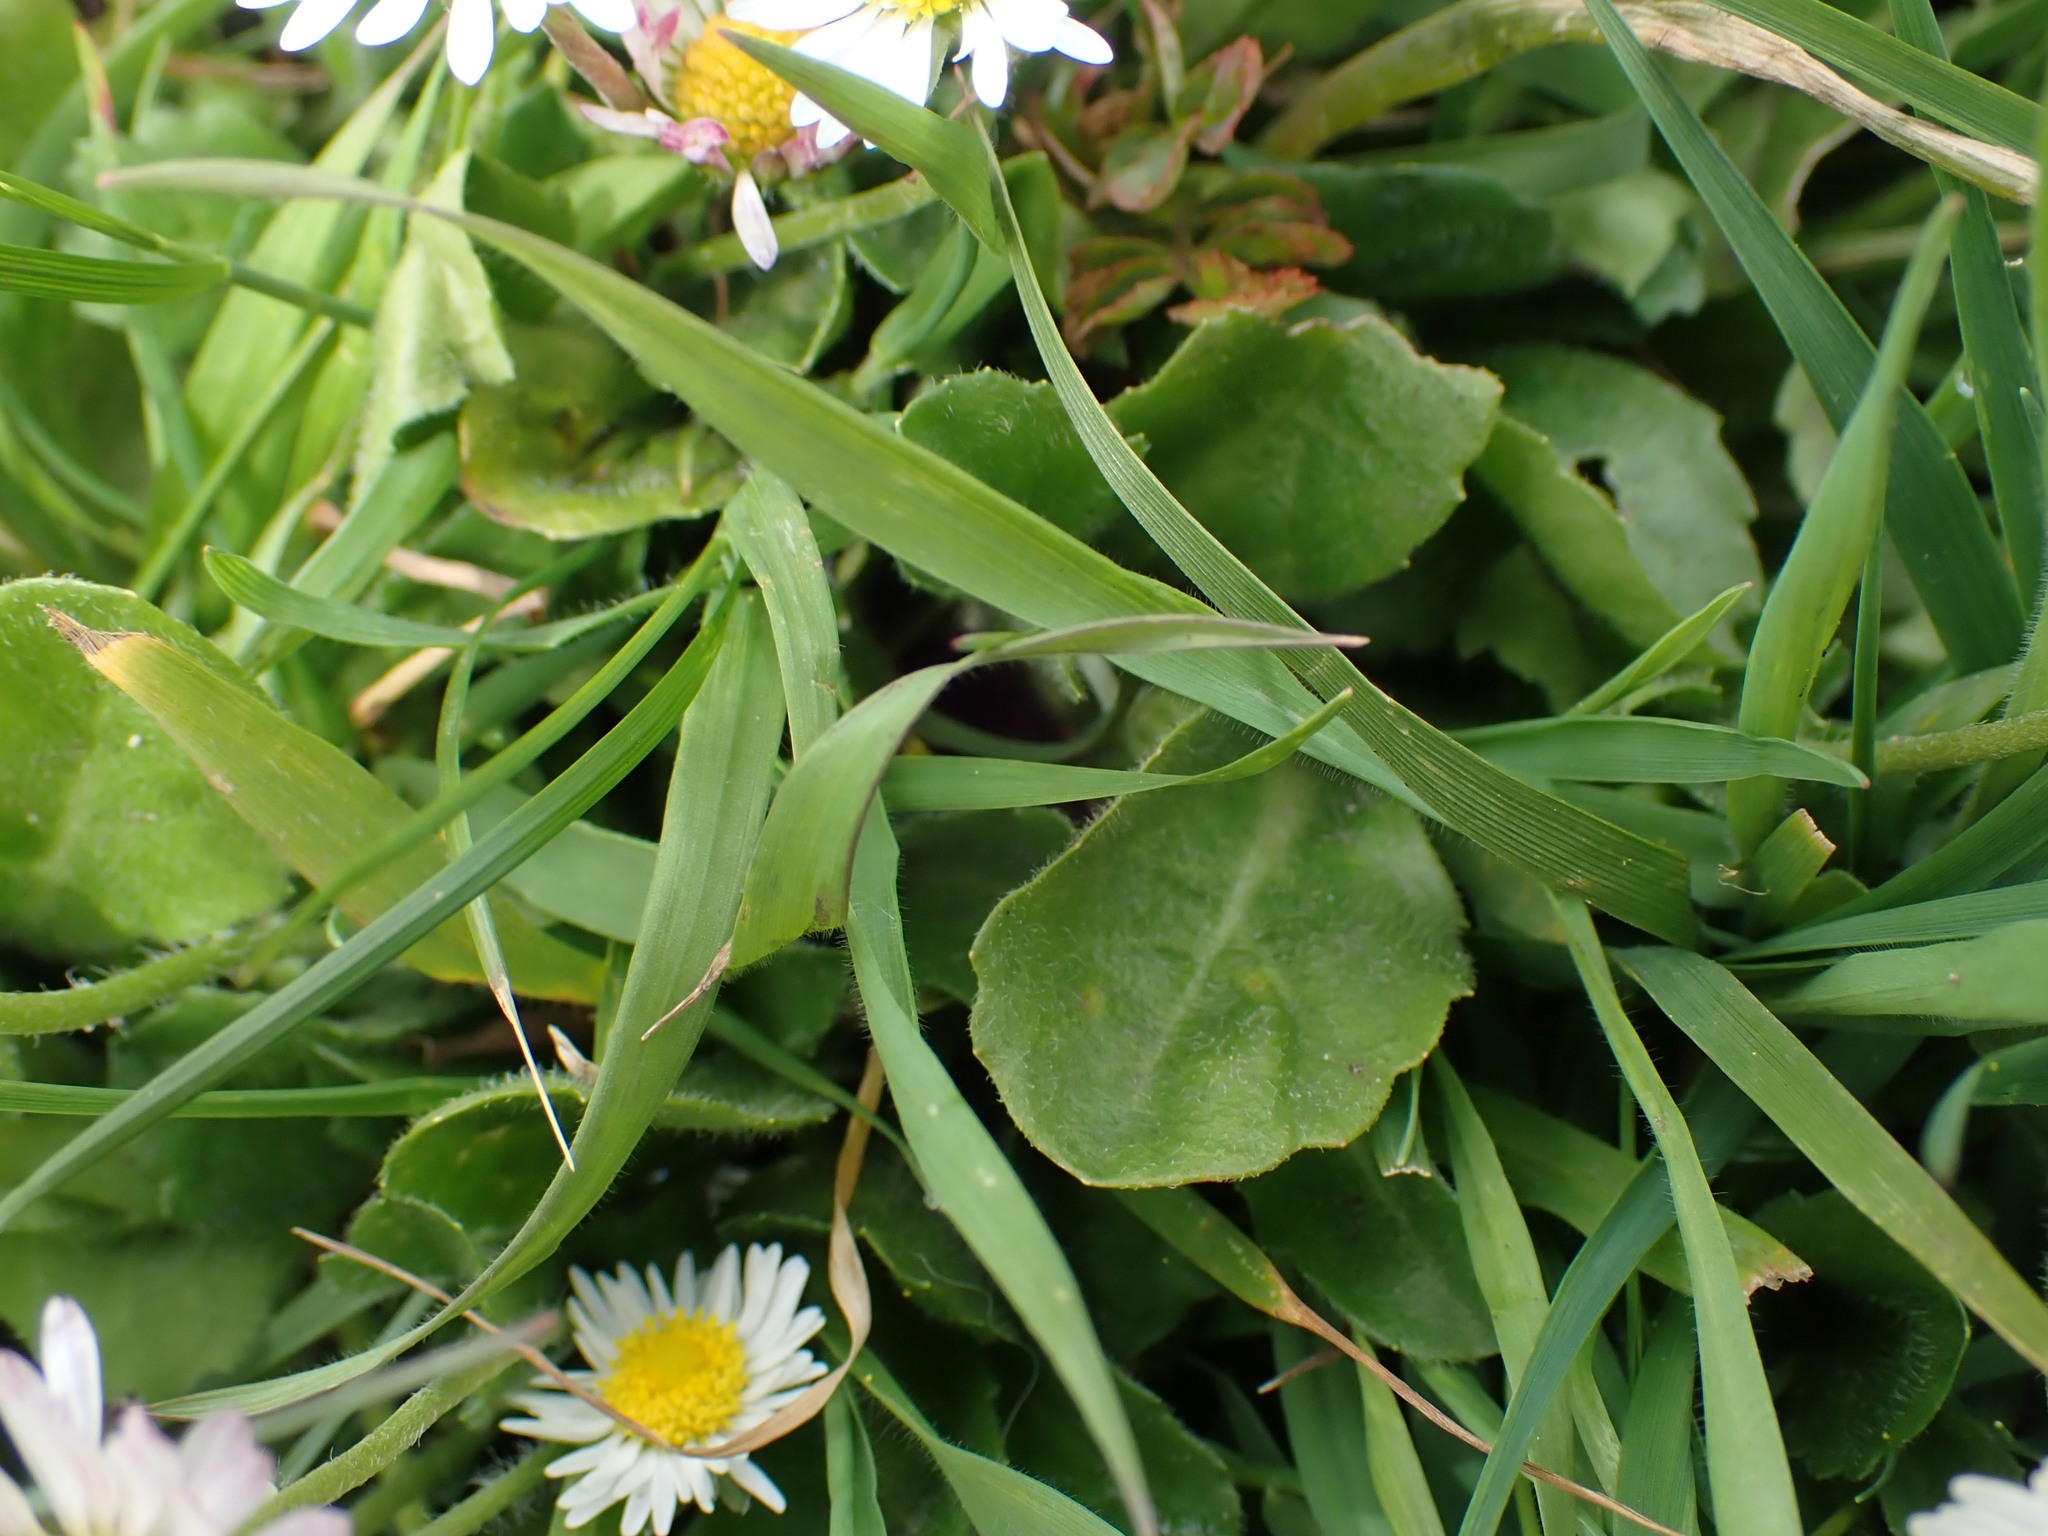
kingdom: Plantae
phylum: Tracheophyta
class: Magnoliopsida
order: Asterales
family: Asteraceae
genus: Bellis
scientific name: Bellis perennis
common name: Lawndaisy
